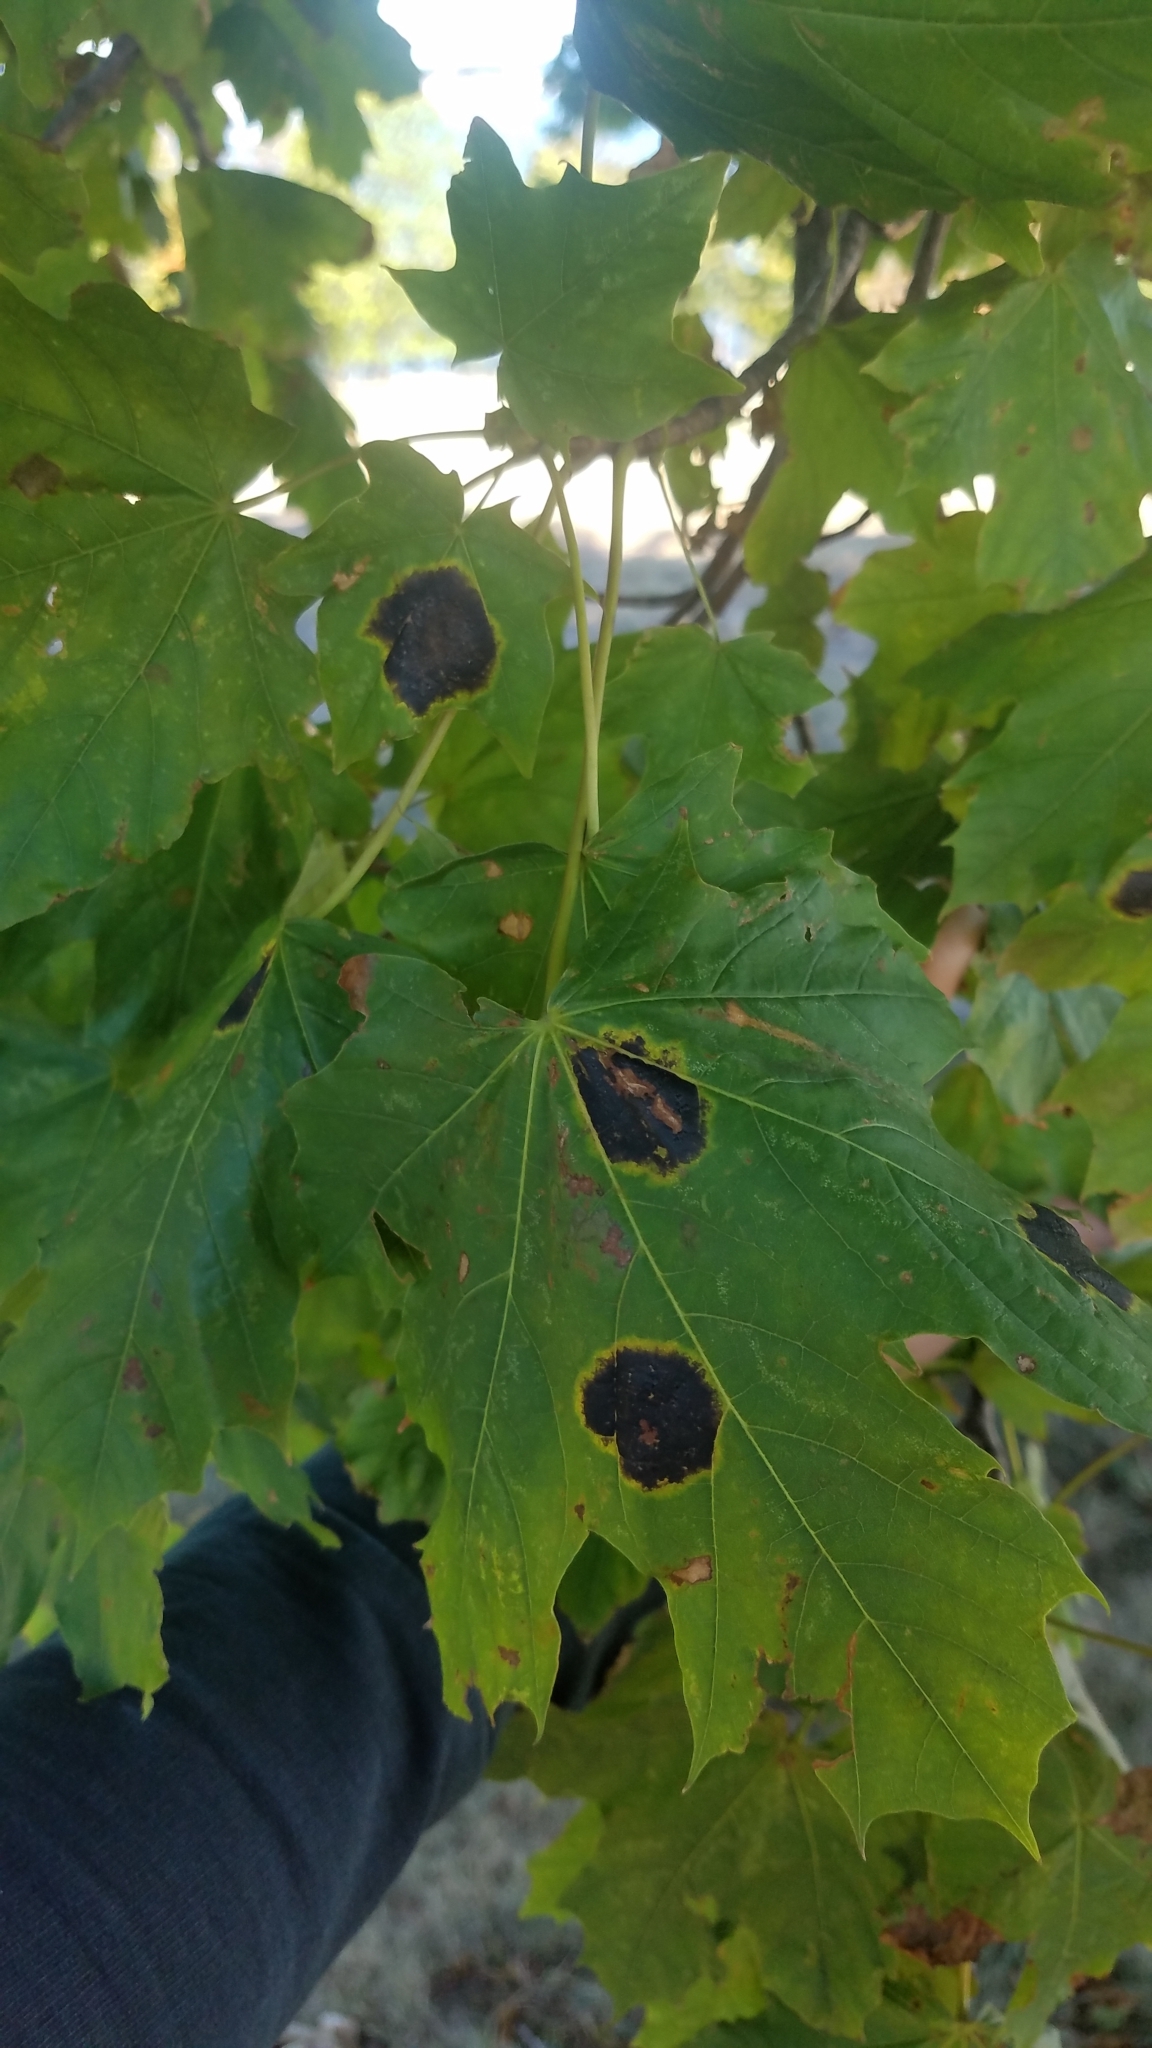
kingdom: Fungi
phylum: Ascomycota
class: Leotiomycetes
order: Rhytismatales
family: Rhytismataceae
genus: Rhytisma
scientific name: Rhytisma acerinum
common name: European tar spot
